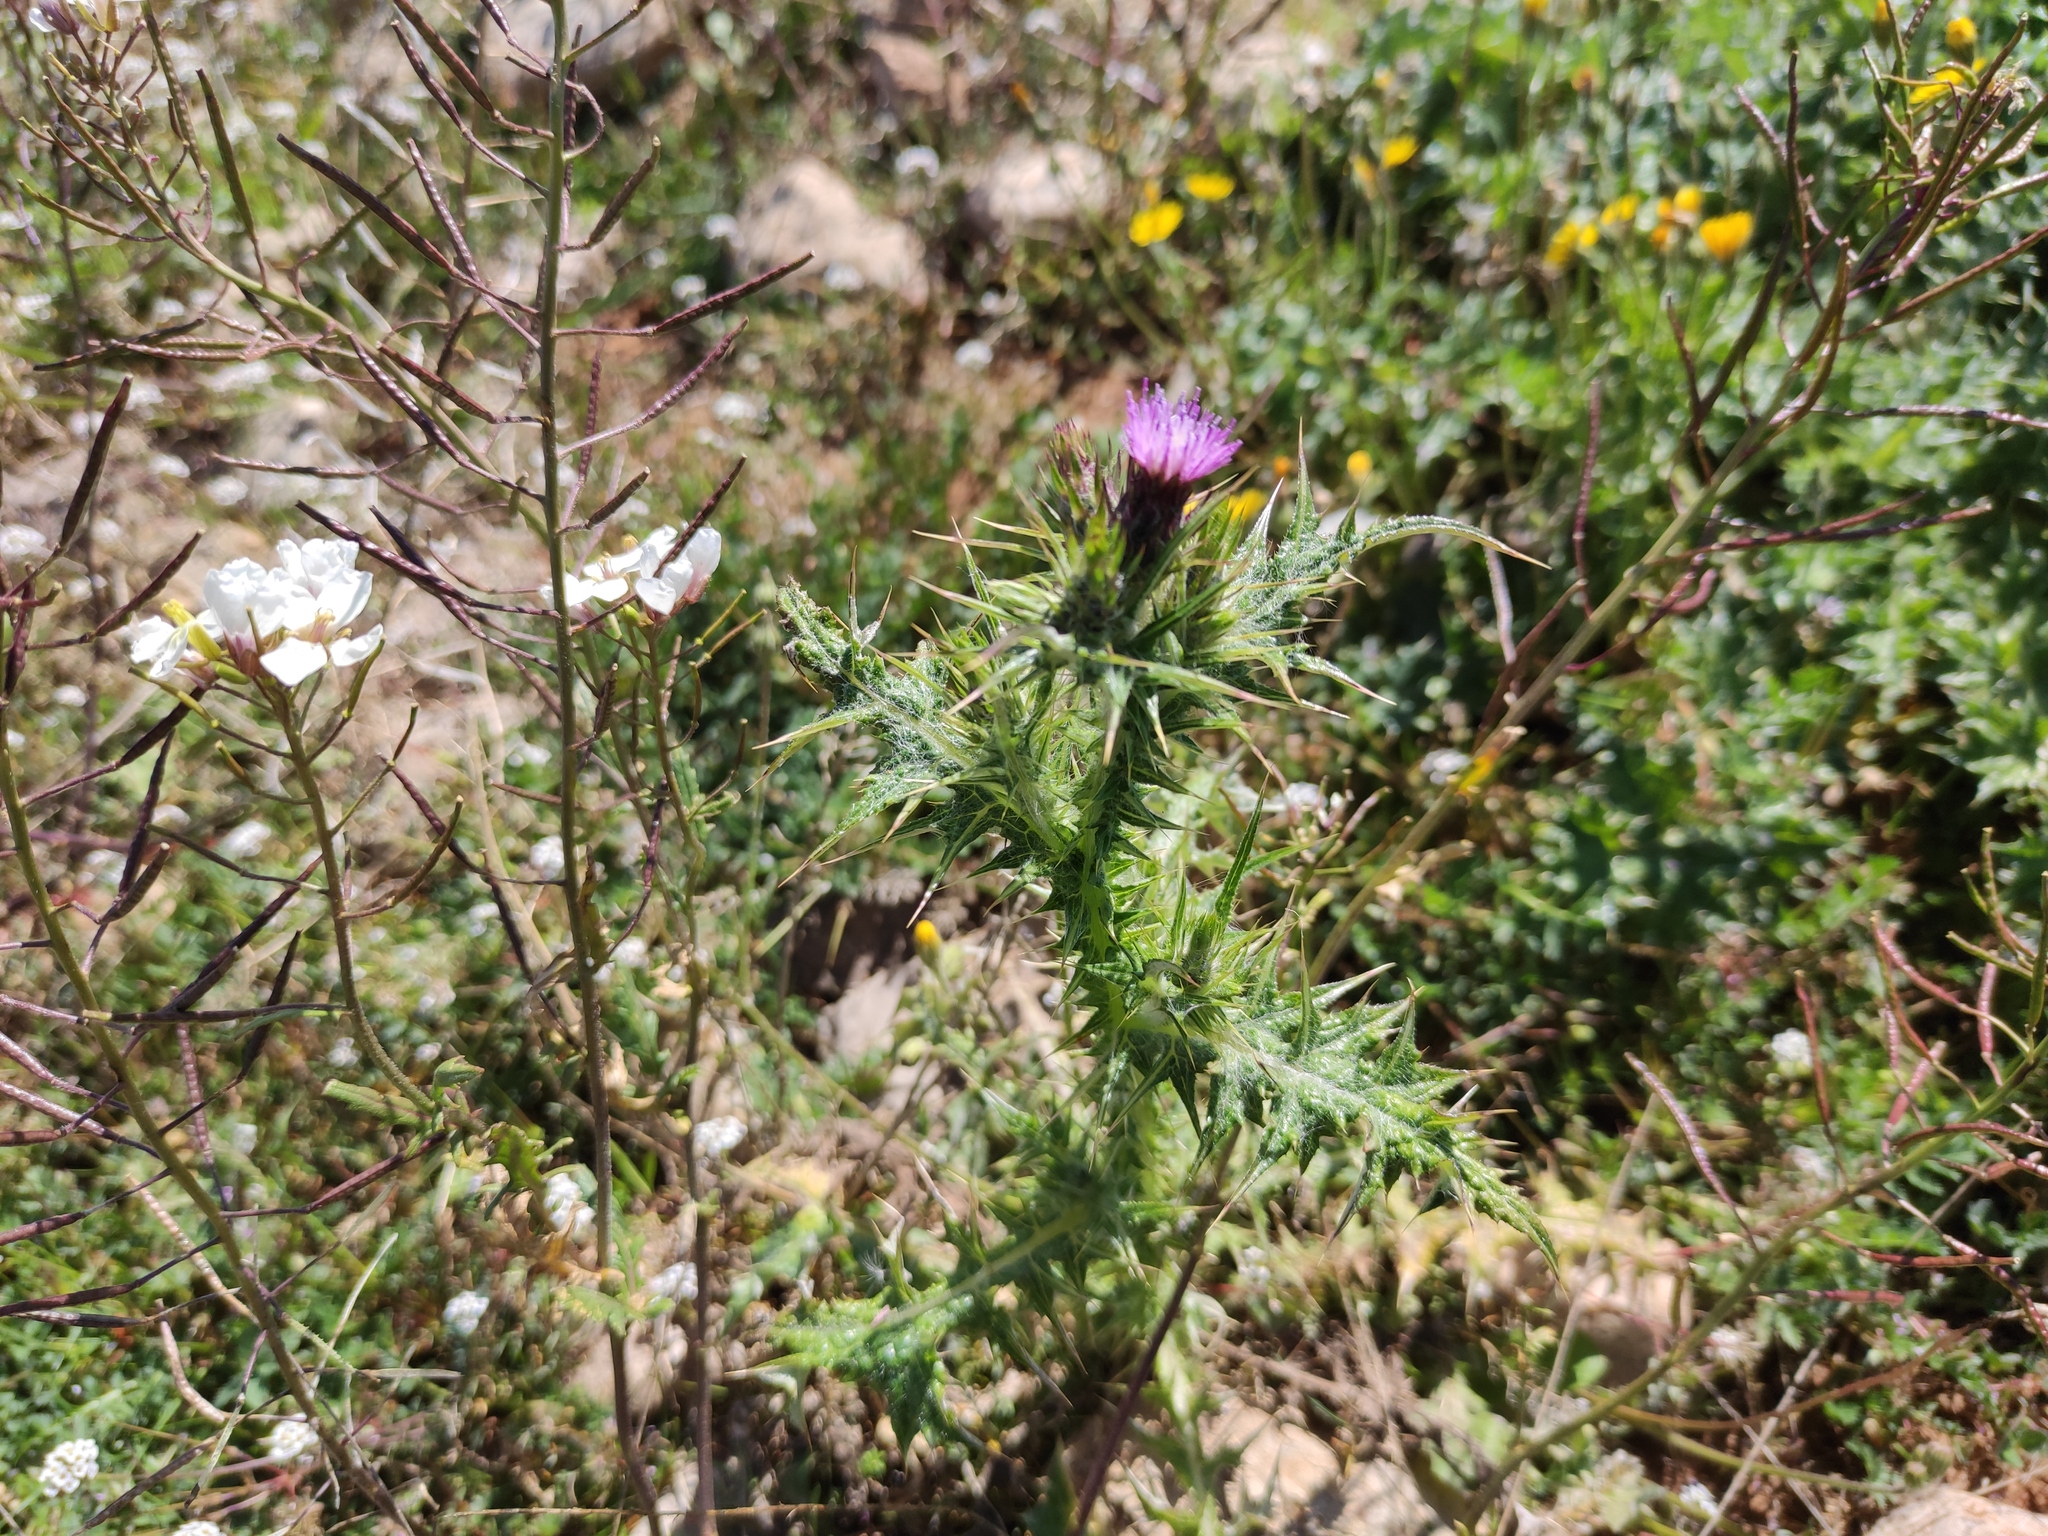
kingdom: Plantae
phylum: Tracheophyta
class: Magnoliopsida
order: Asterales
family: Asteraceae
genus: Carduus
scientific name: Carduus pycnocephalus
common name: Plymouth thistle
